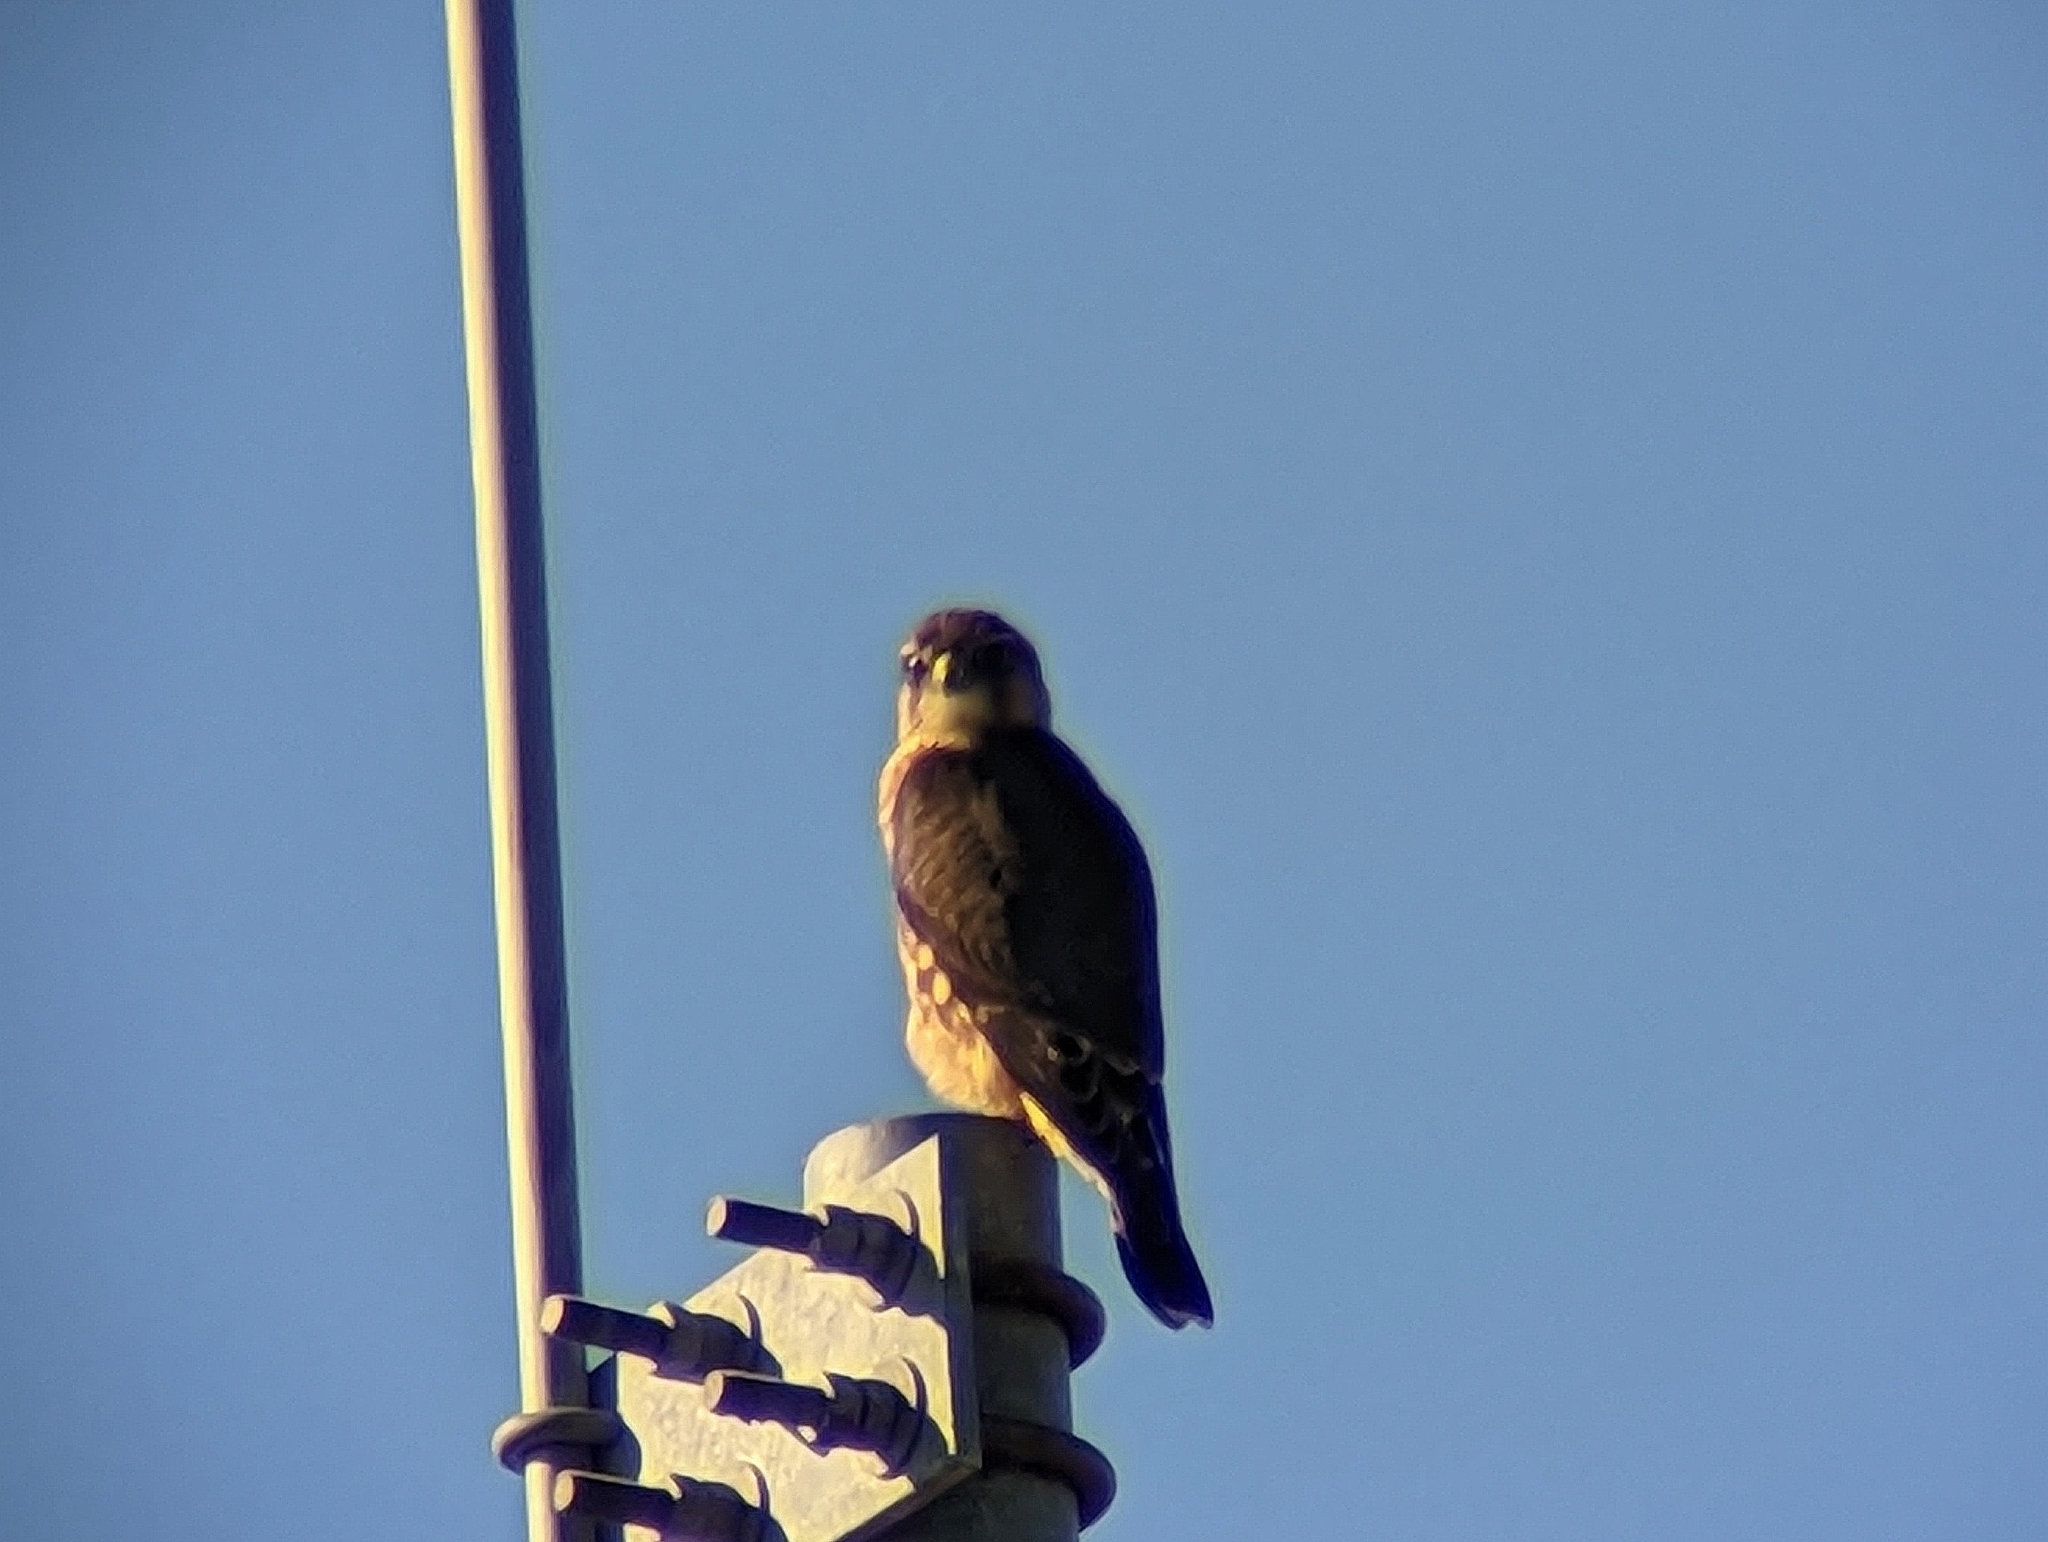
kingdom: Animalia
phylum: Chordata
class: Aves
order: Falconiformes
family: Falconidae
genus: Falco
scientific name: Falco columbarius
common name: Merlin
